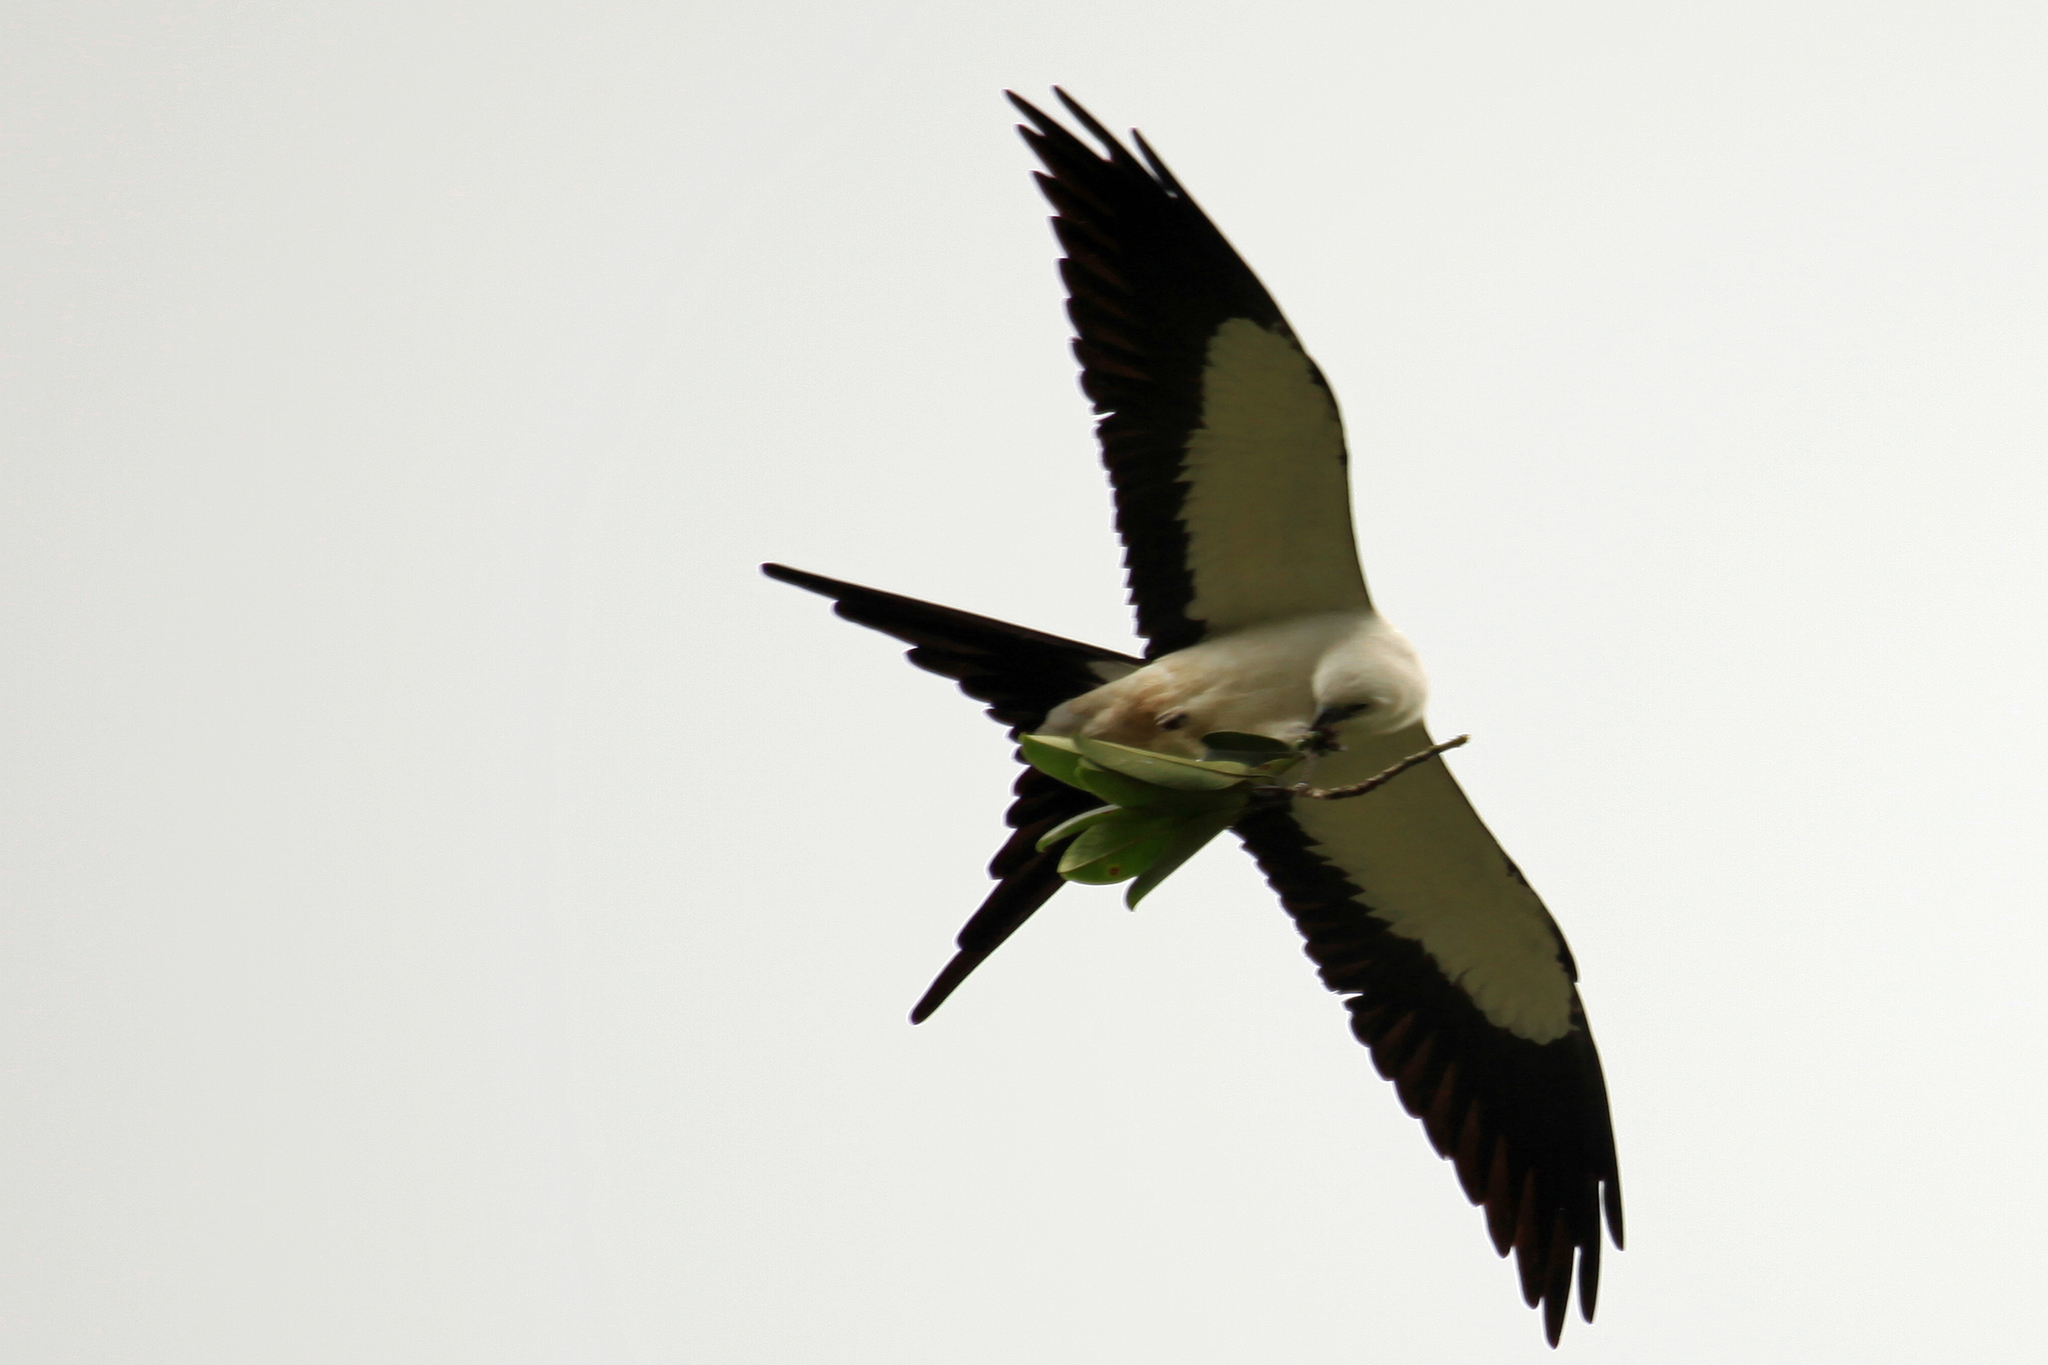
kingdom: Animalia
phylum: Chordata
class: Aves
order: Accipitriformes
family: Accipitridae
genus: Elanoides
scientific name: Elanoides forficatus
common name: Swallow-tailed kite
